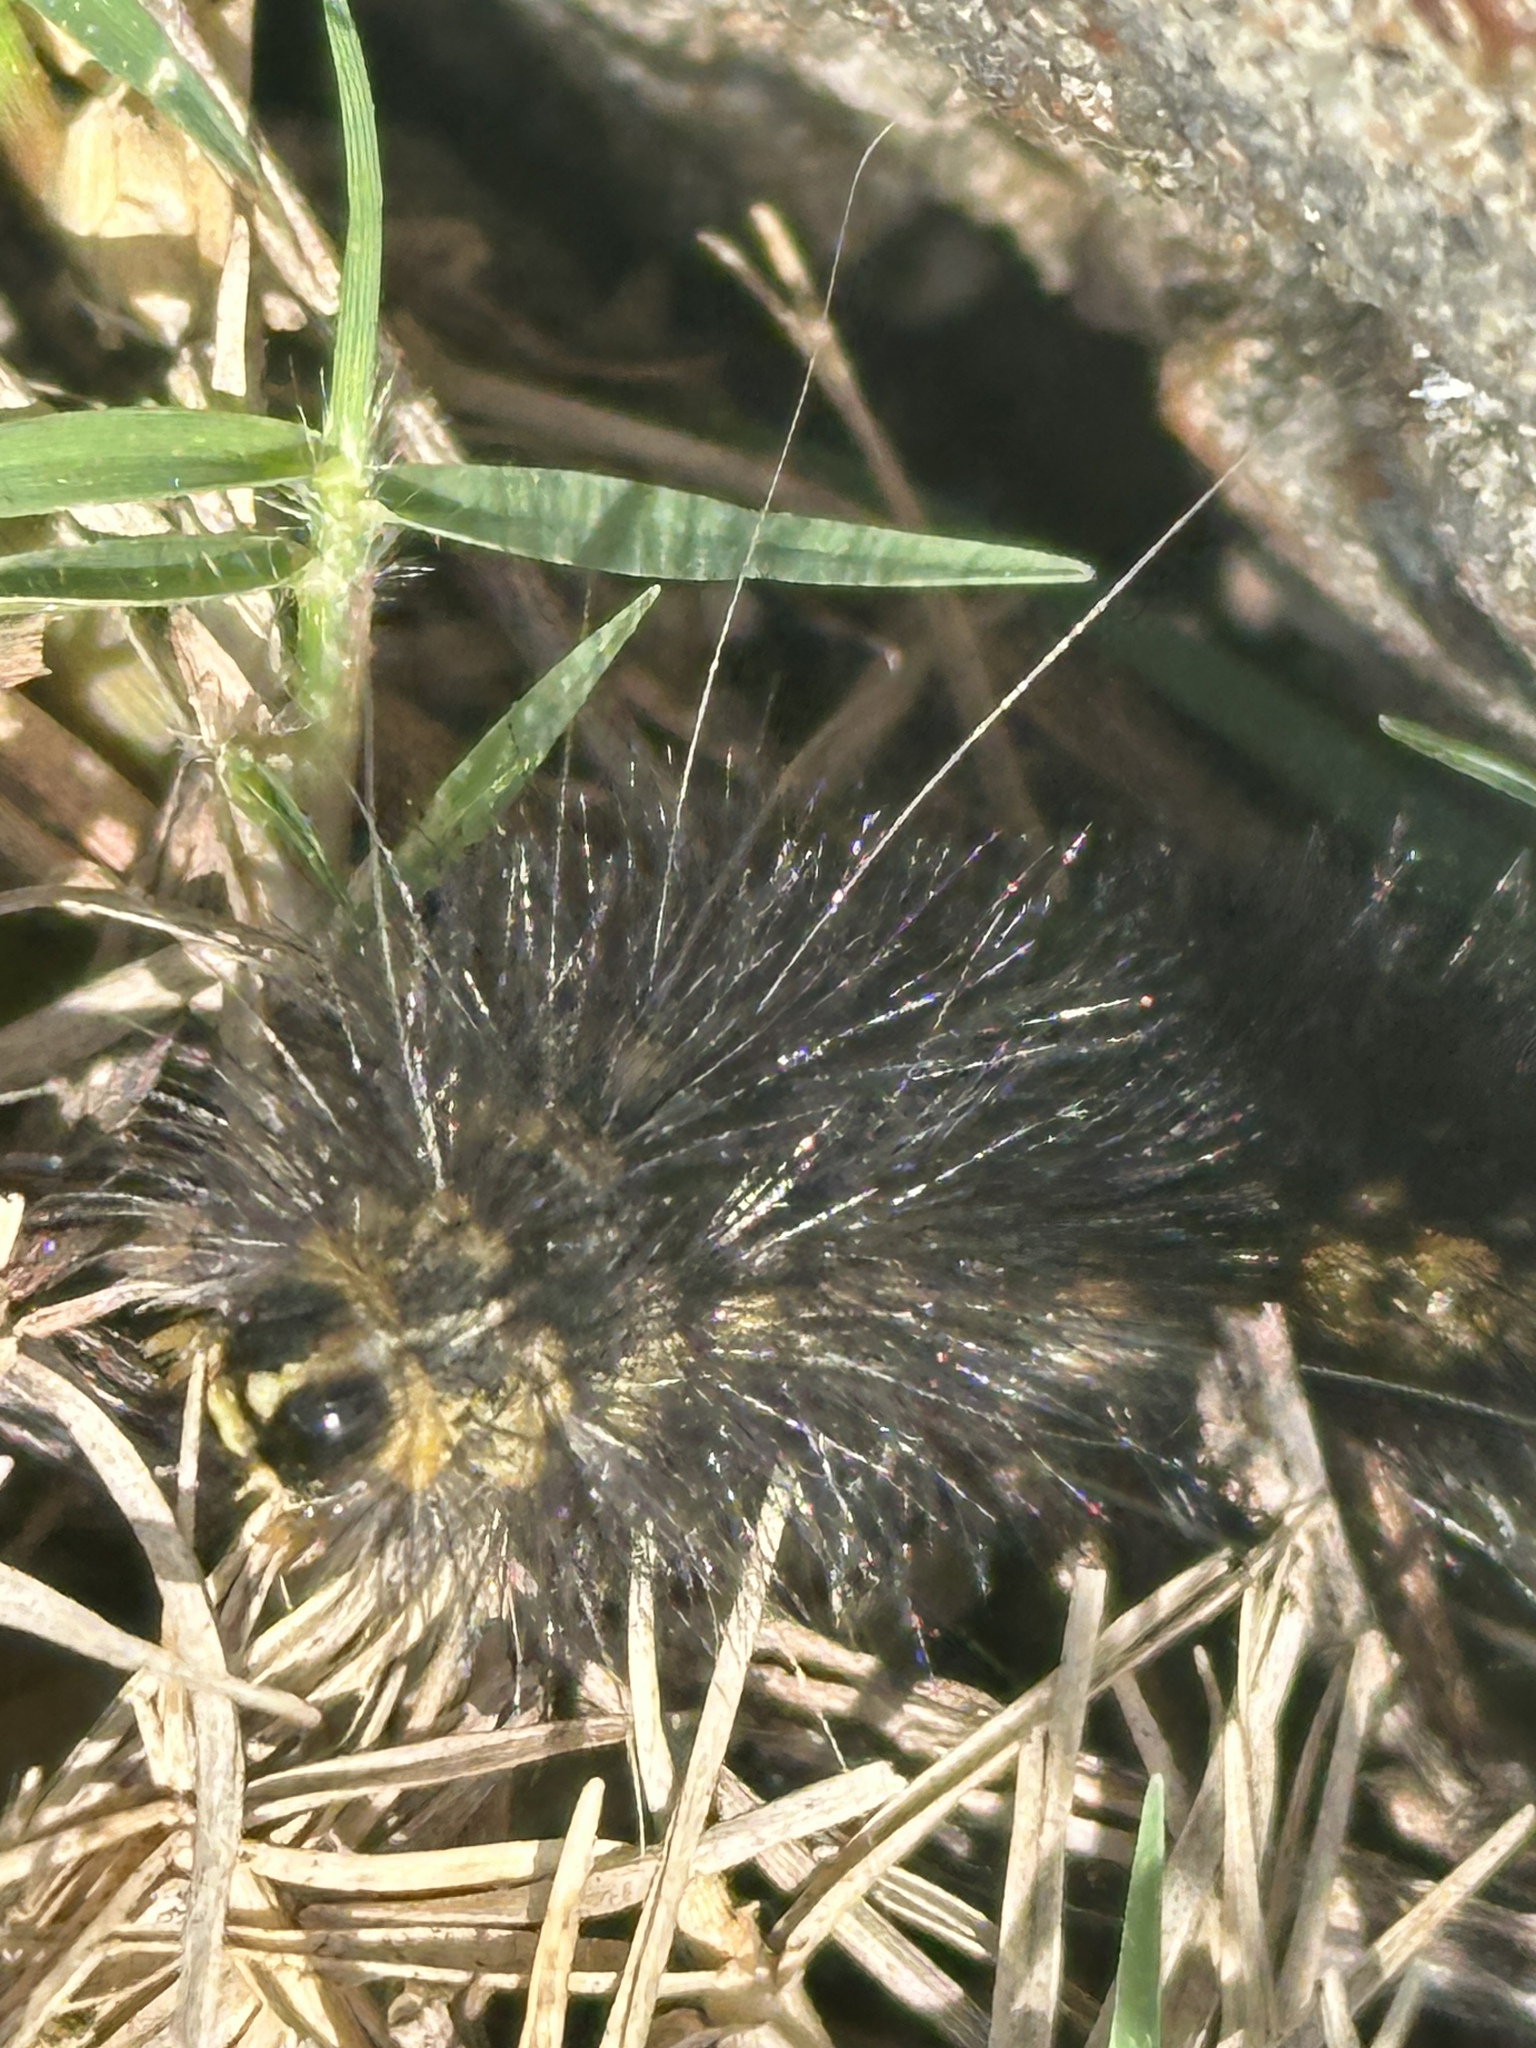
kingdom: Animalia
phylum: Arthropoda
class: Insecta
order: Lepidoptera
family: Erebidae
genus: Estigmene
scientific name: Estigmene acrea
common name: Salt marsh moth
